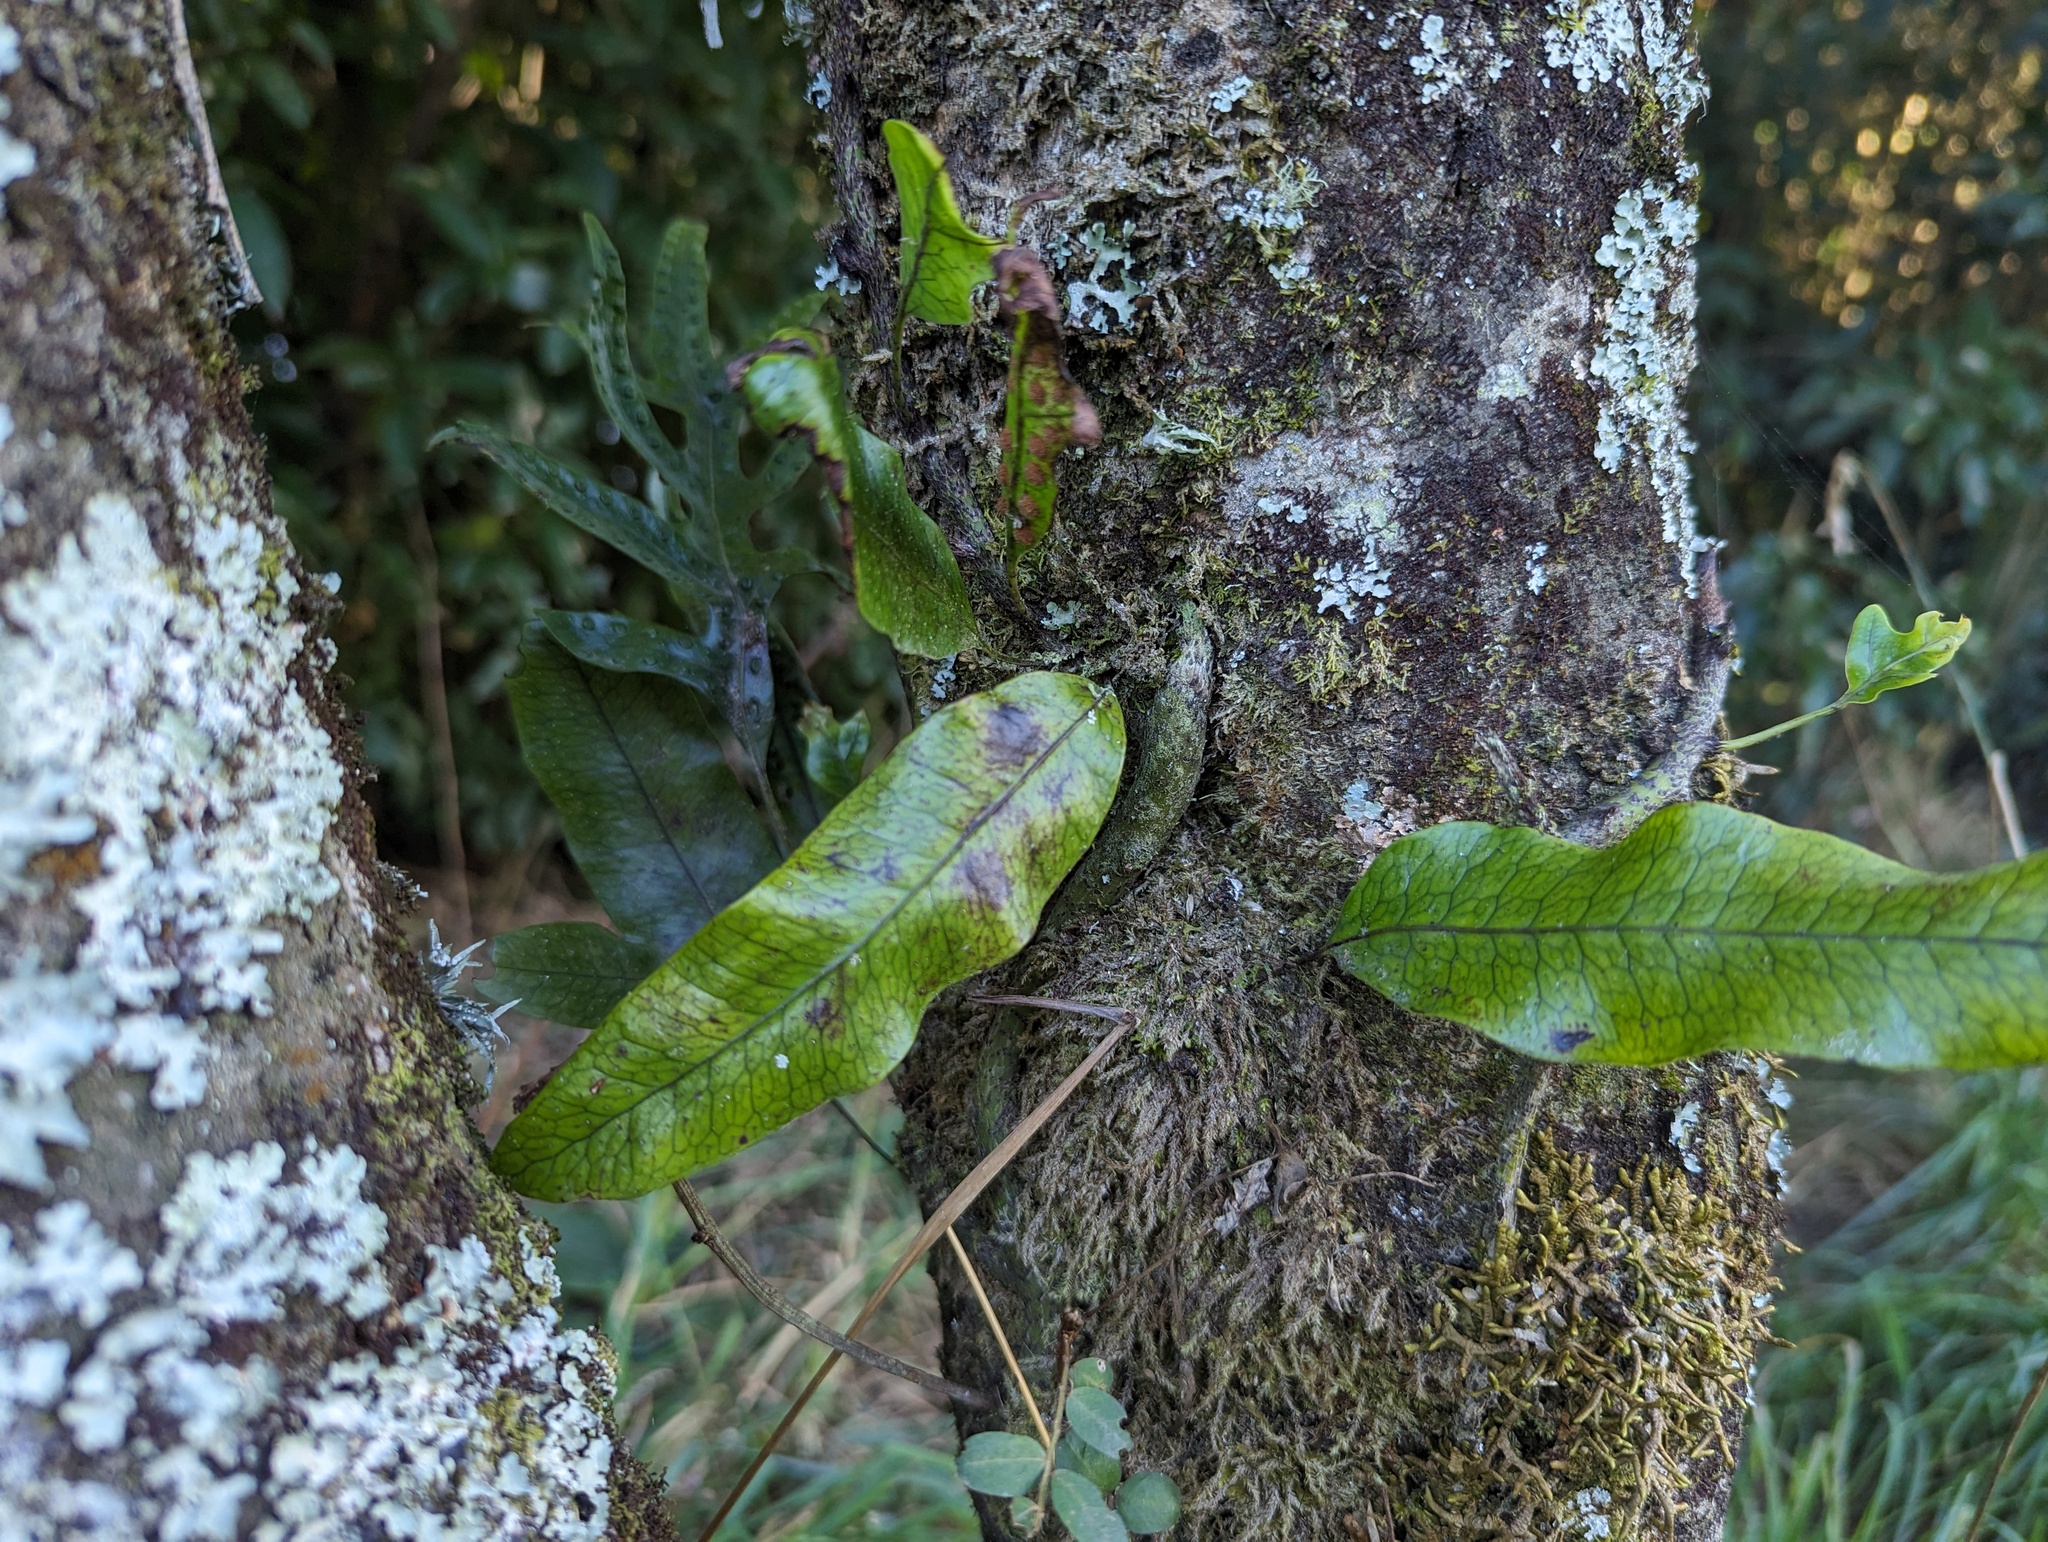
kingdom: Plantae
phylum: Tracheophyta
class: Polypodiopsida
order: Polypodiales
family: Polypodiaceae
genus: Lecanopteris
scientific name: Lecanopteris pustulata
